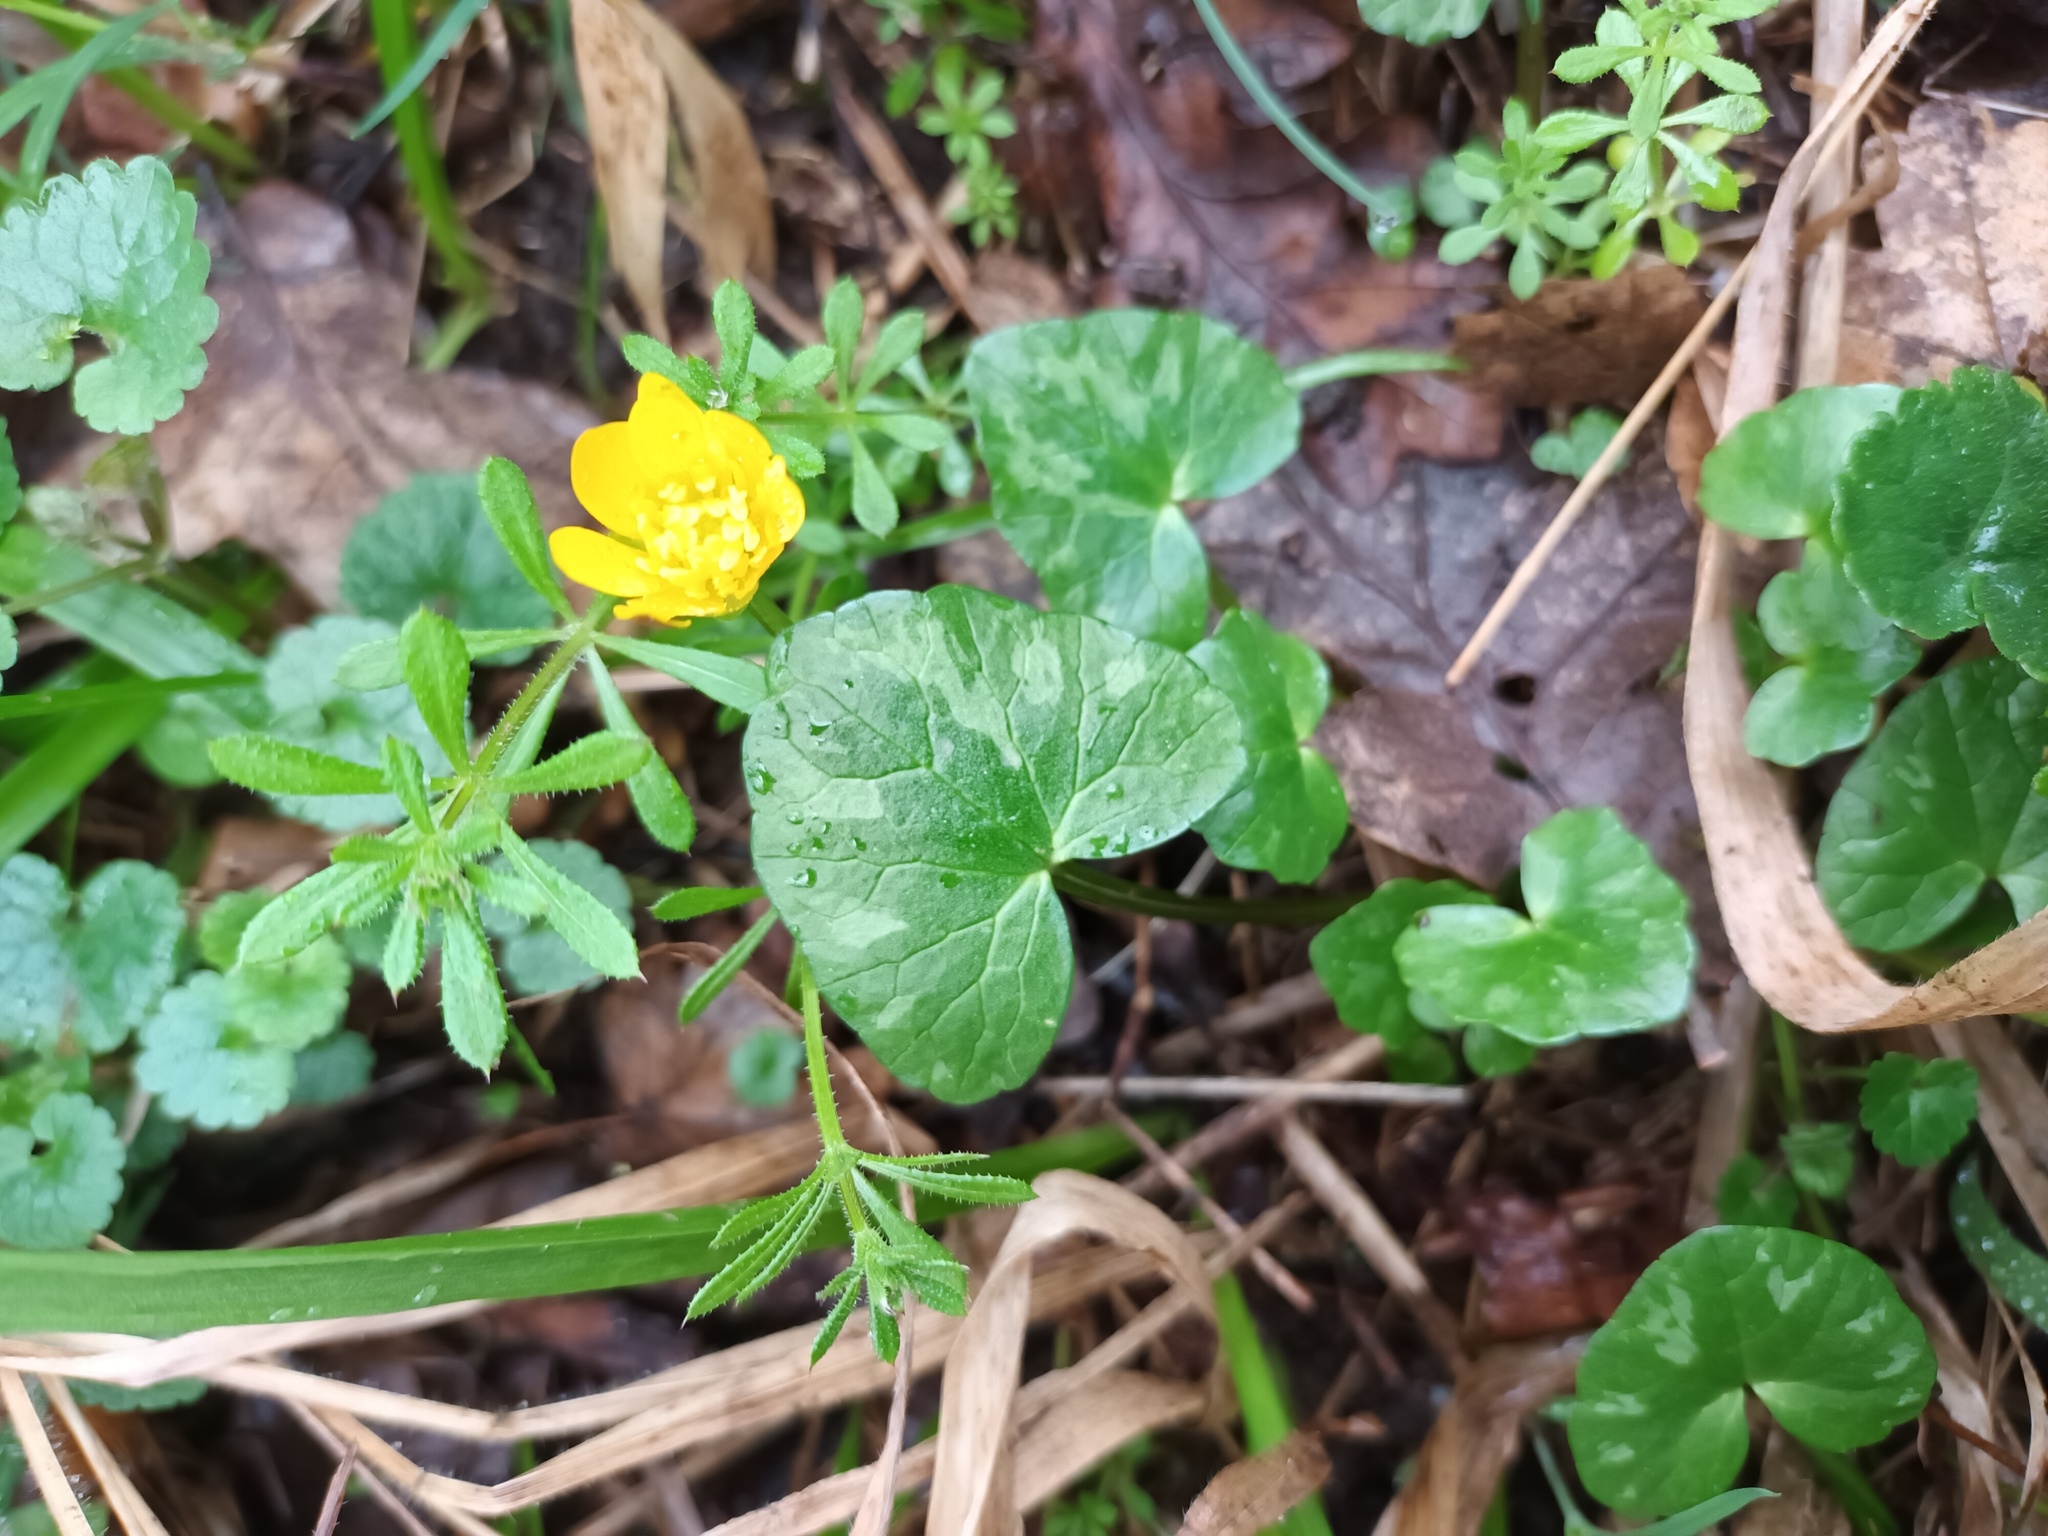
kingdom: Plantae
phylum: Tracheophyta
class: Magnoliopsida
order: Ranunculales
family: Ranunculaceae
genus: Ficaria
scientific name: Ficaria verna
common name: Lesser celandine
